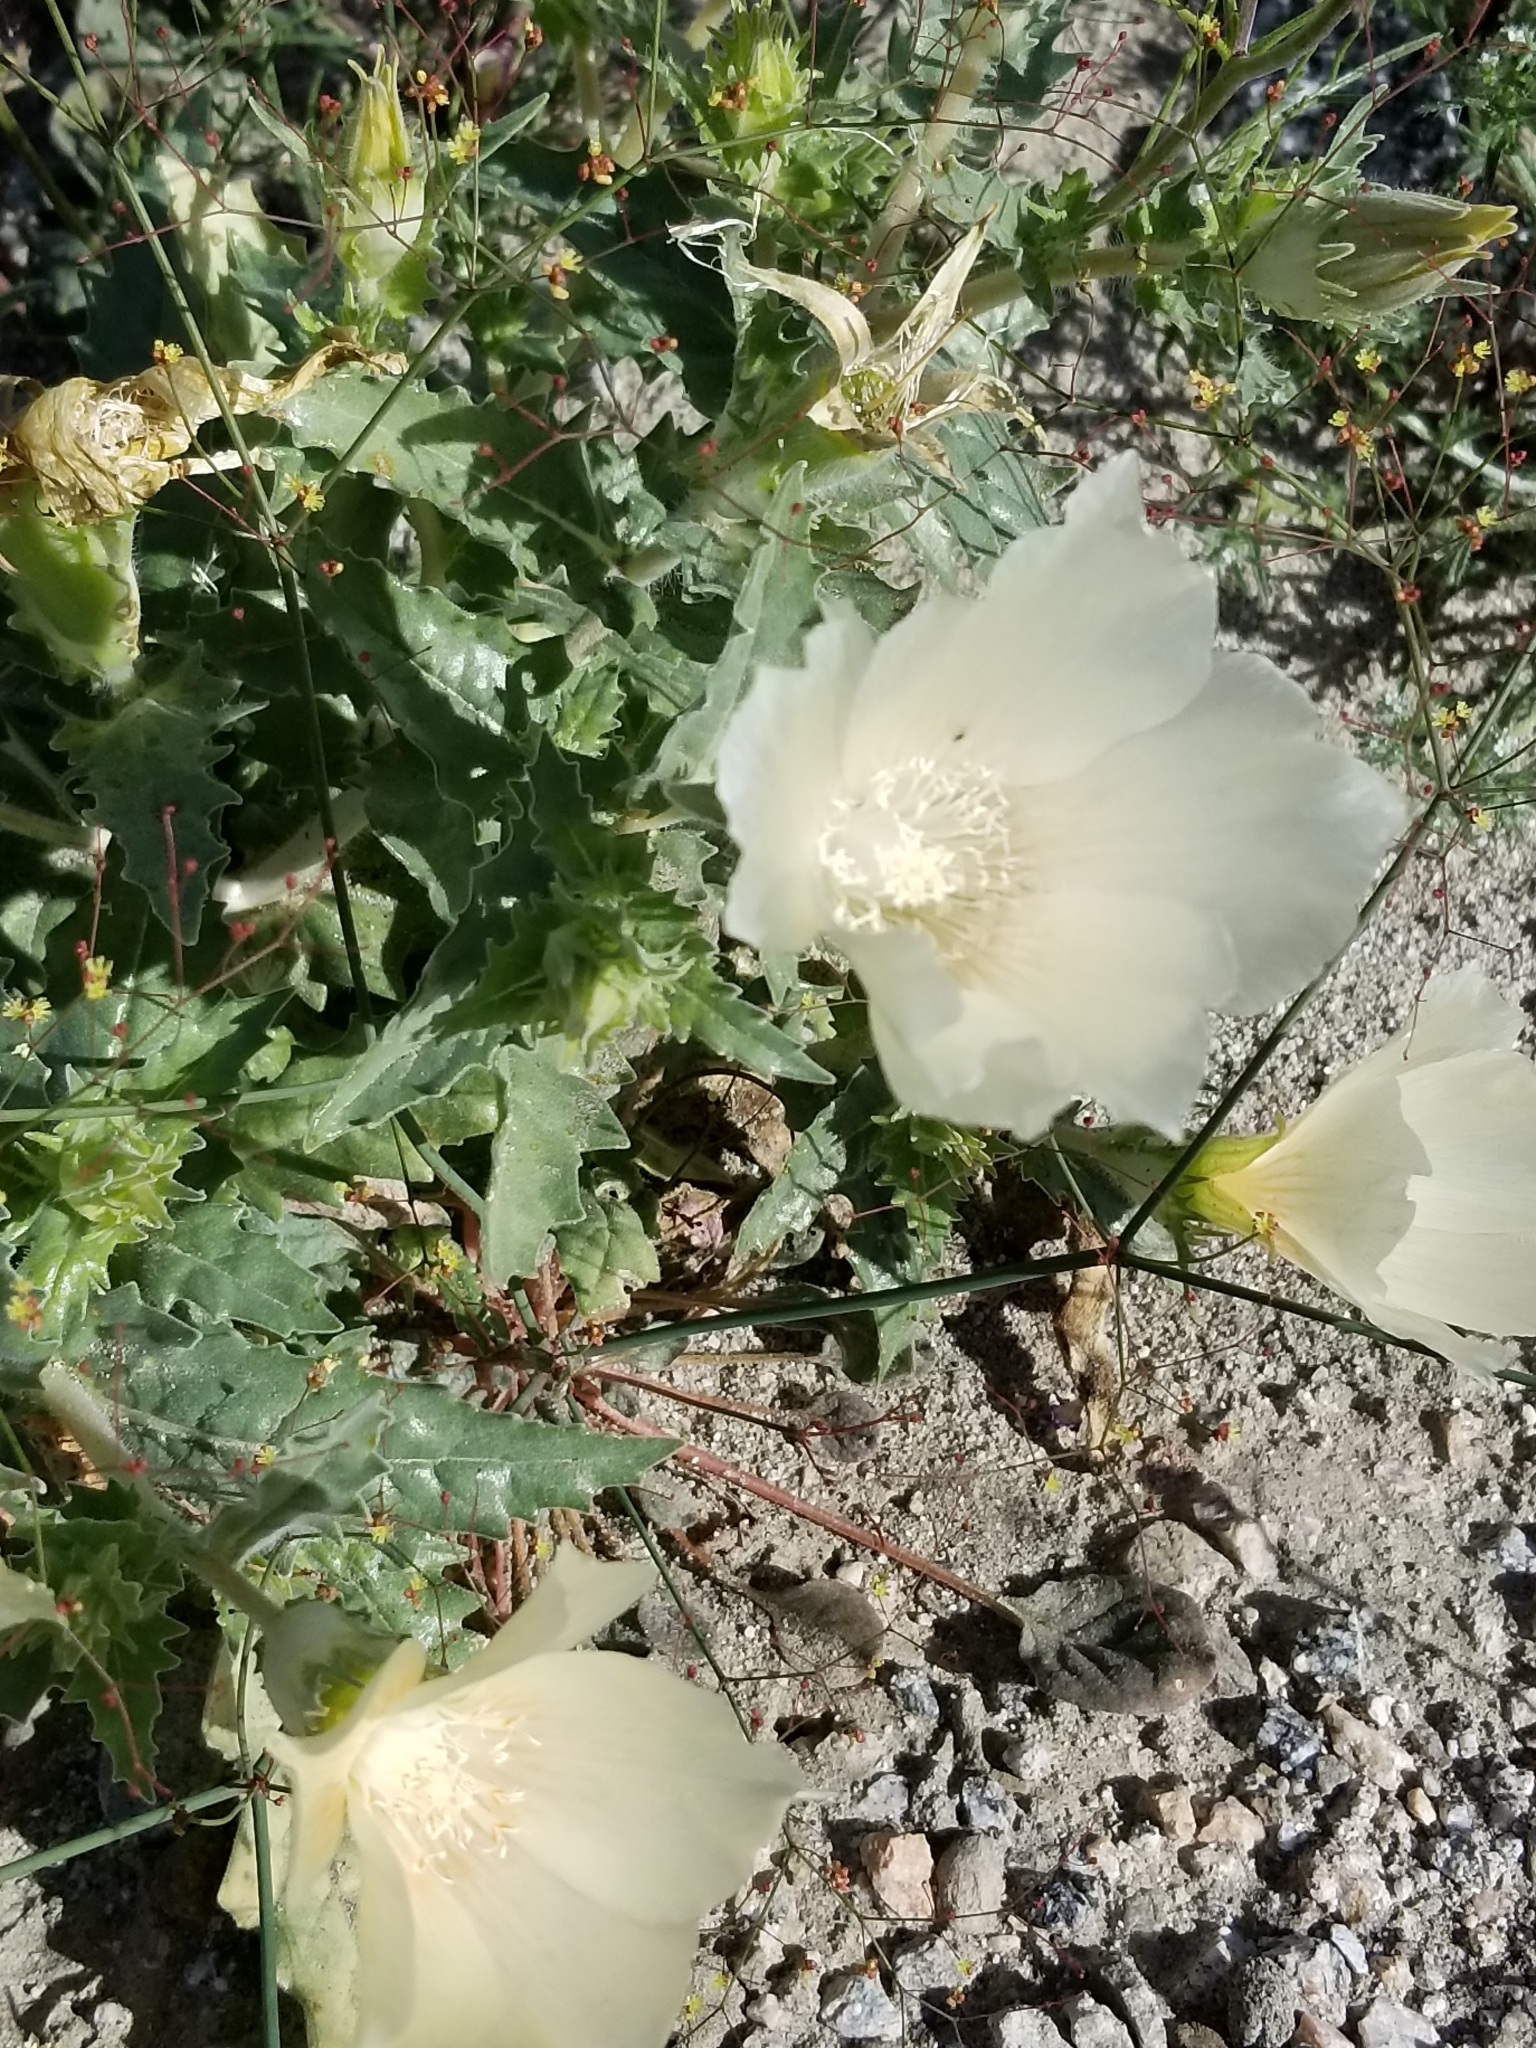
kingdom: Plantae
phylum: Tracheophyta
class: Magnoliopsida
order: Cornales
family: Loasaceae
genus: Mentzelia
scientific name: Mentzelia involucrata
